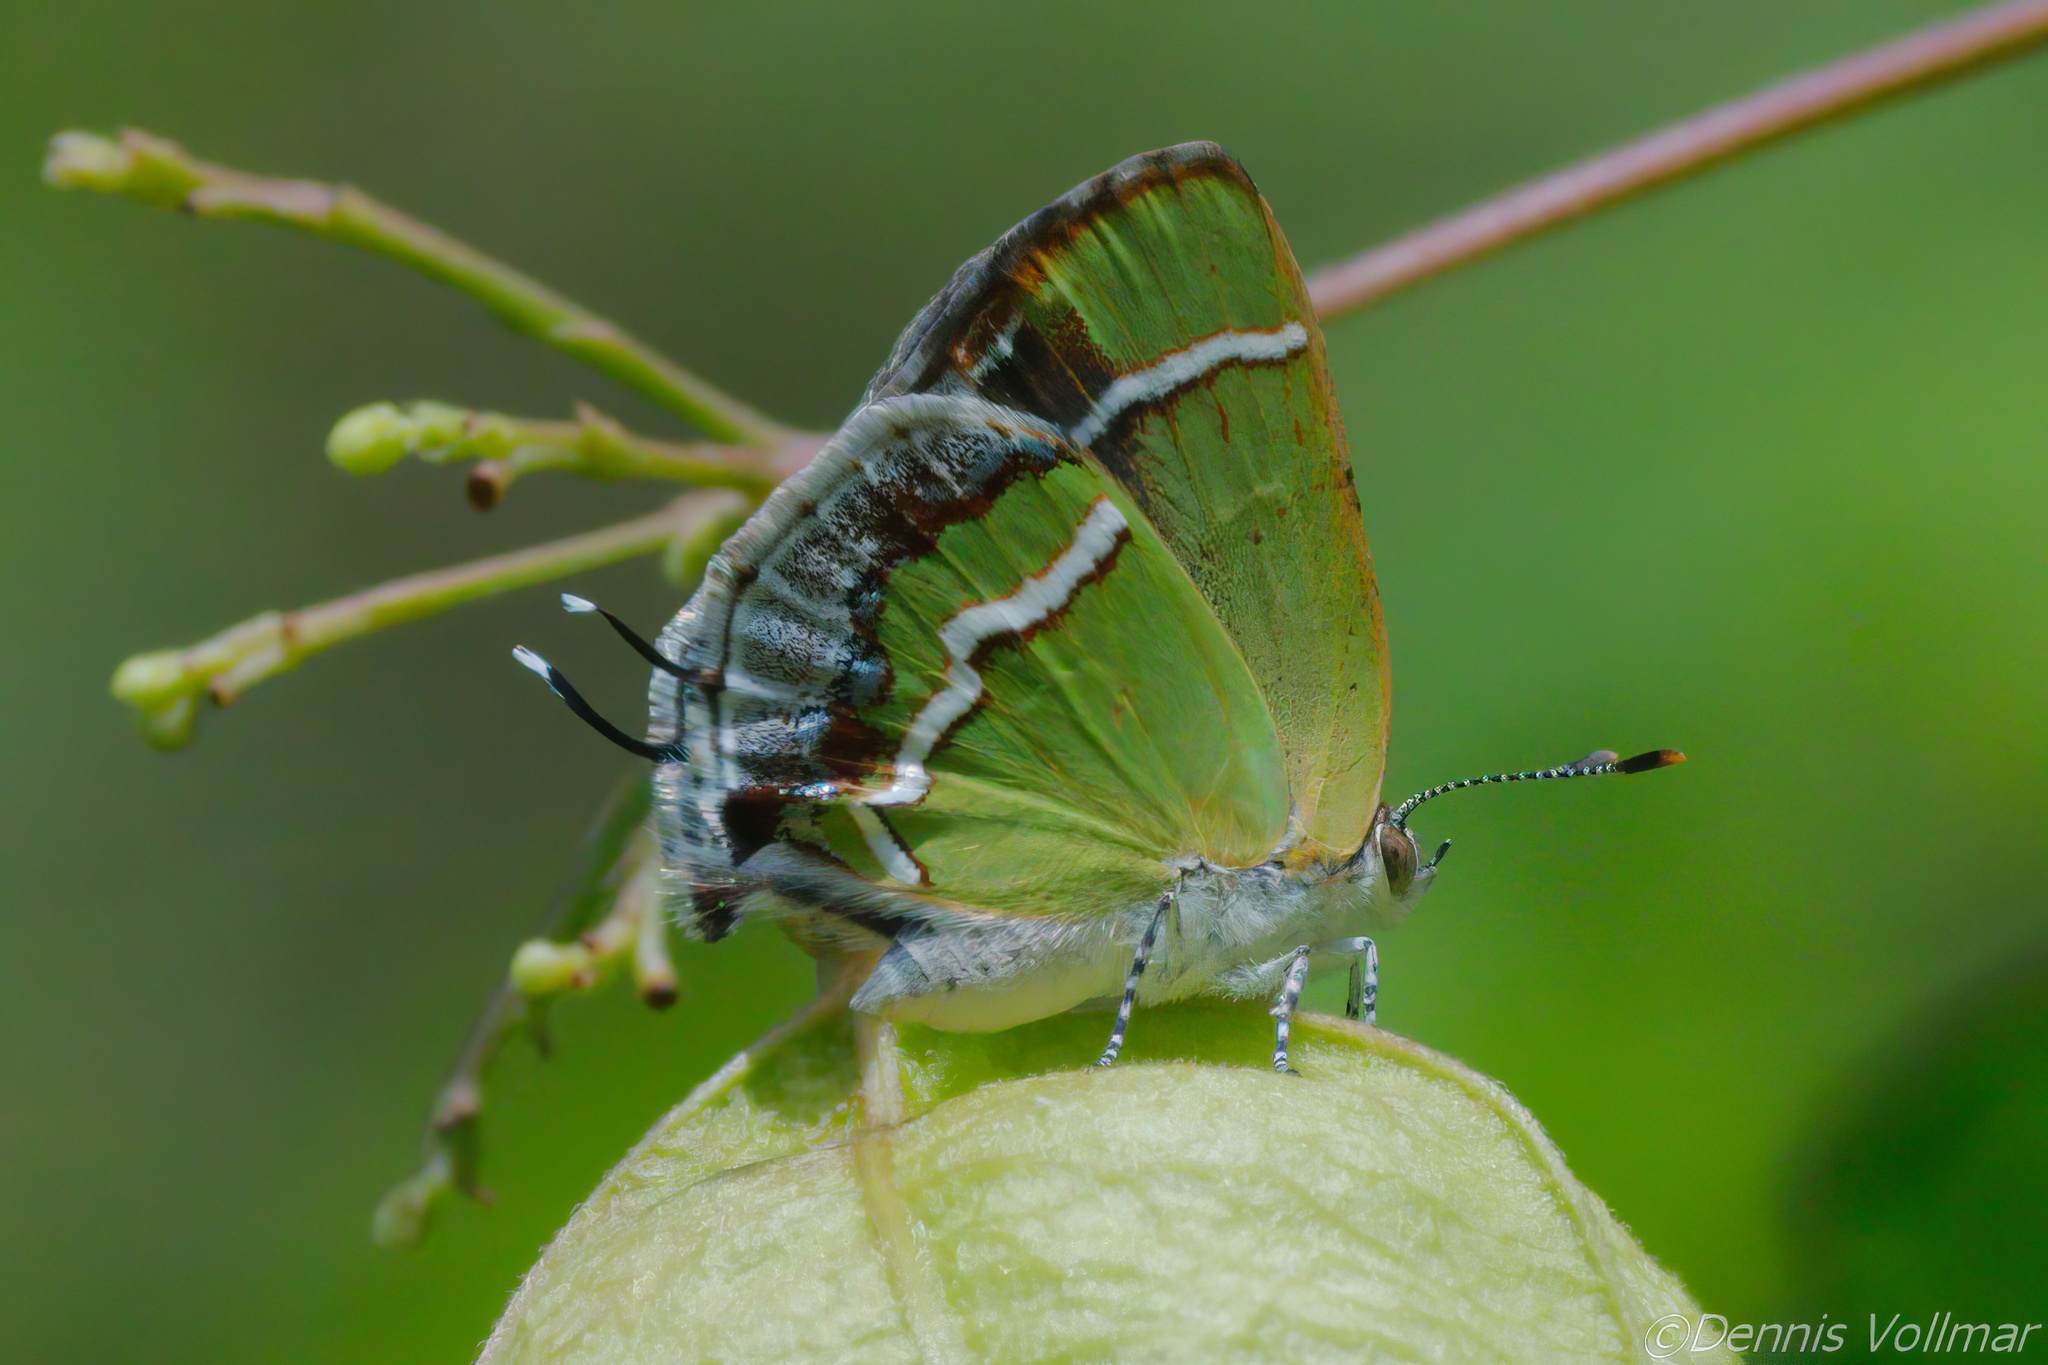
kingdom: Animalia
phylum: Arthropoda
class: Insecta
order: Lepidoptera
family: Lycaenidae
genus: Chlorostrymon
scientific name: Chlorostrymon simaethis
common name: Silver-banded hairstreak
